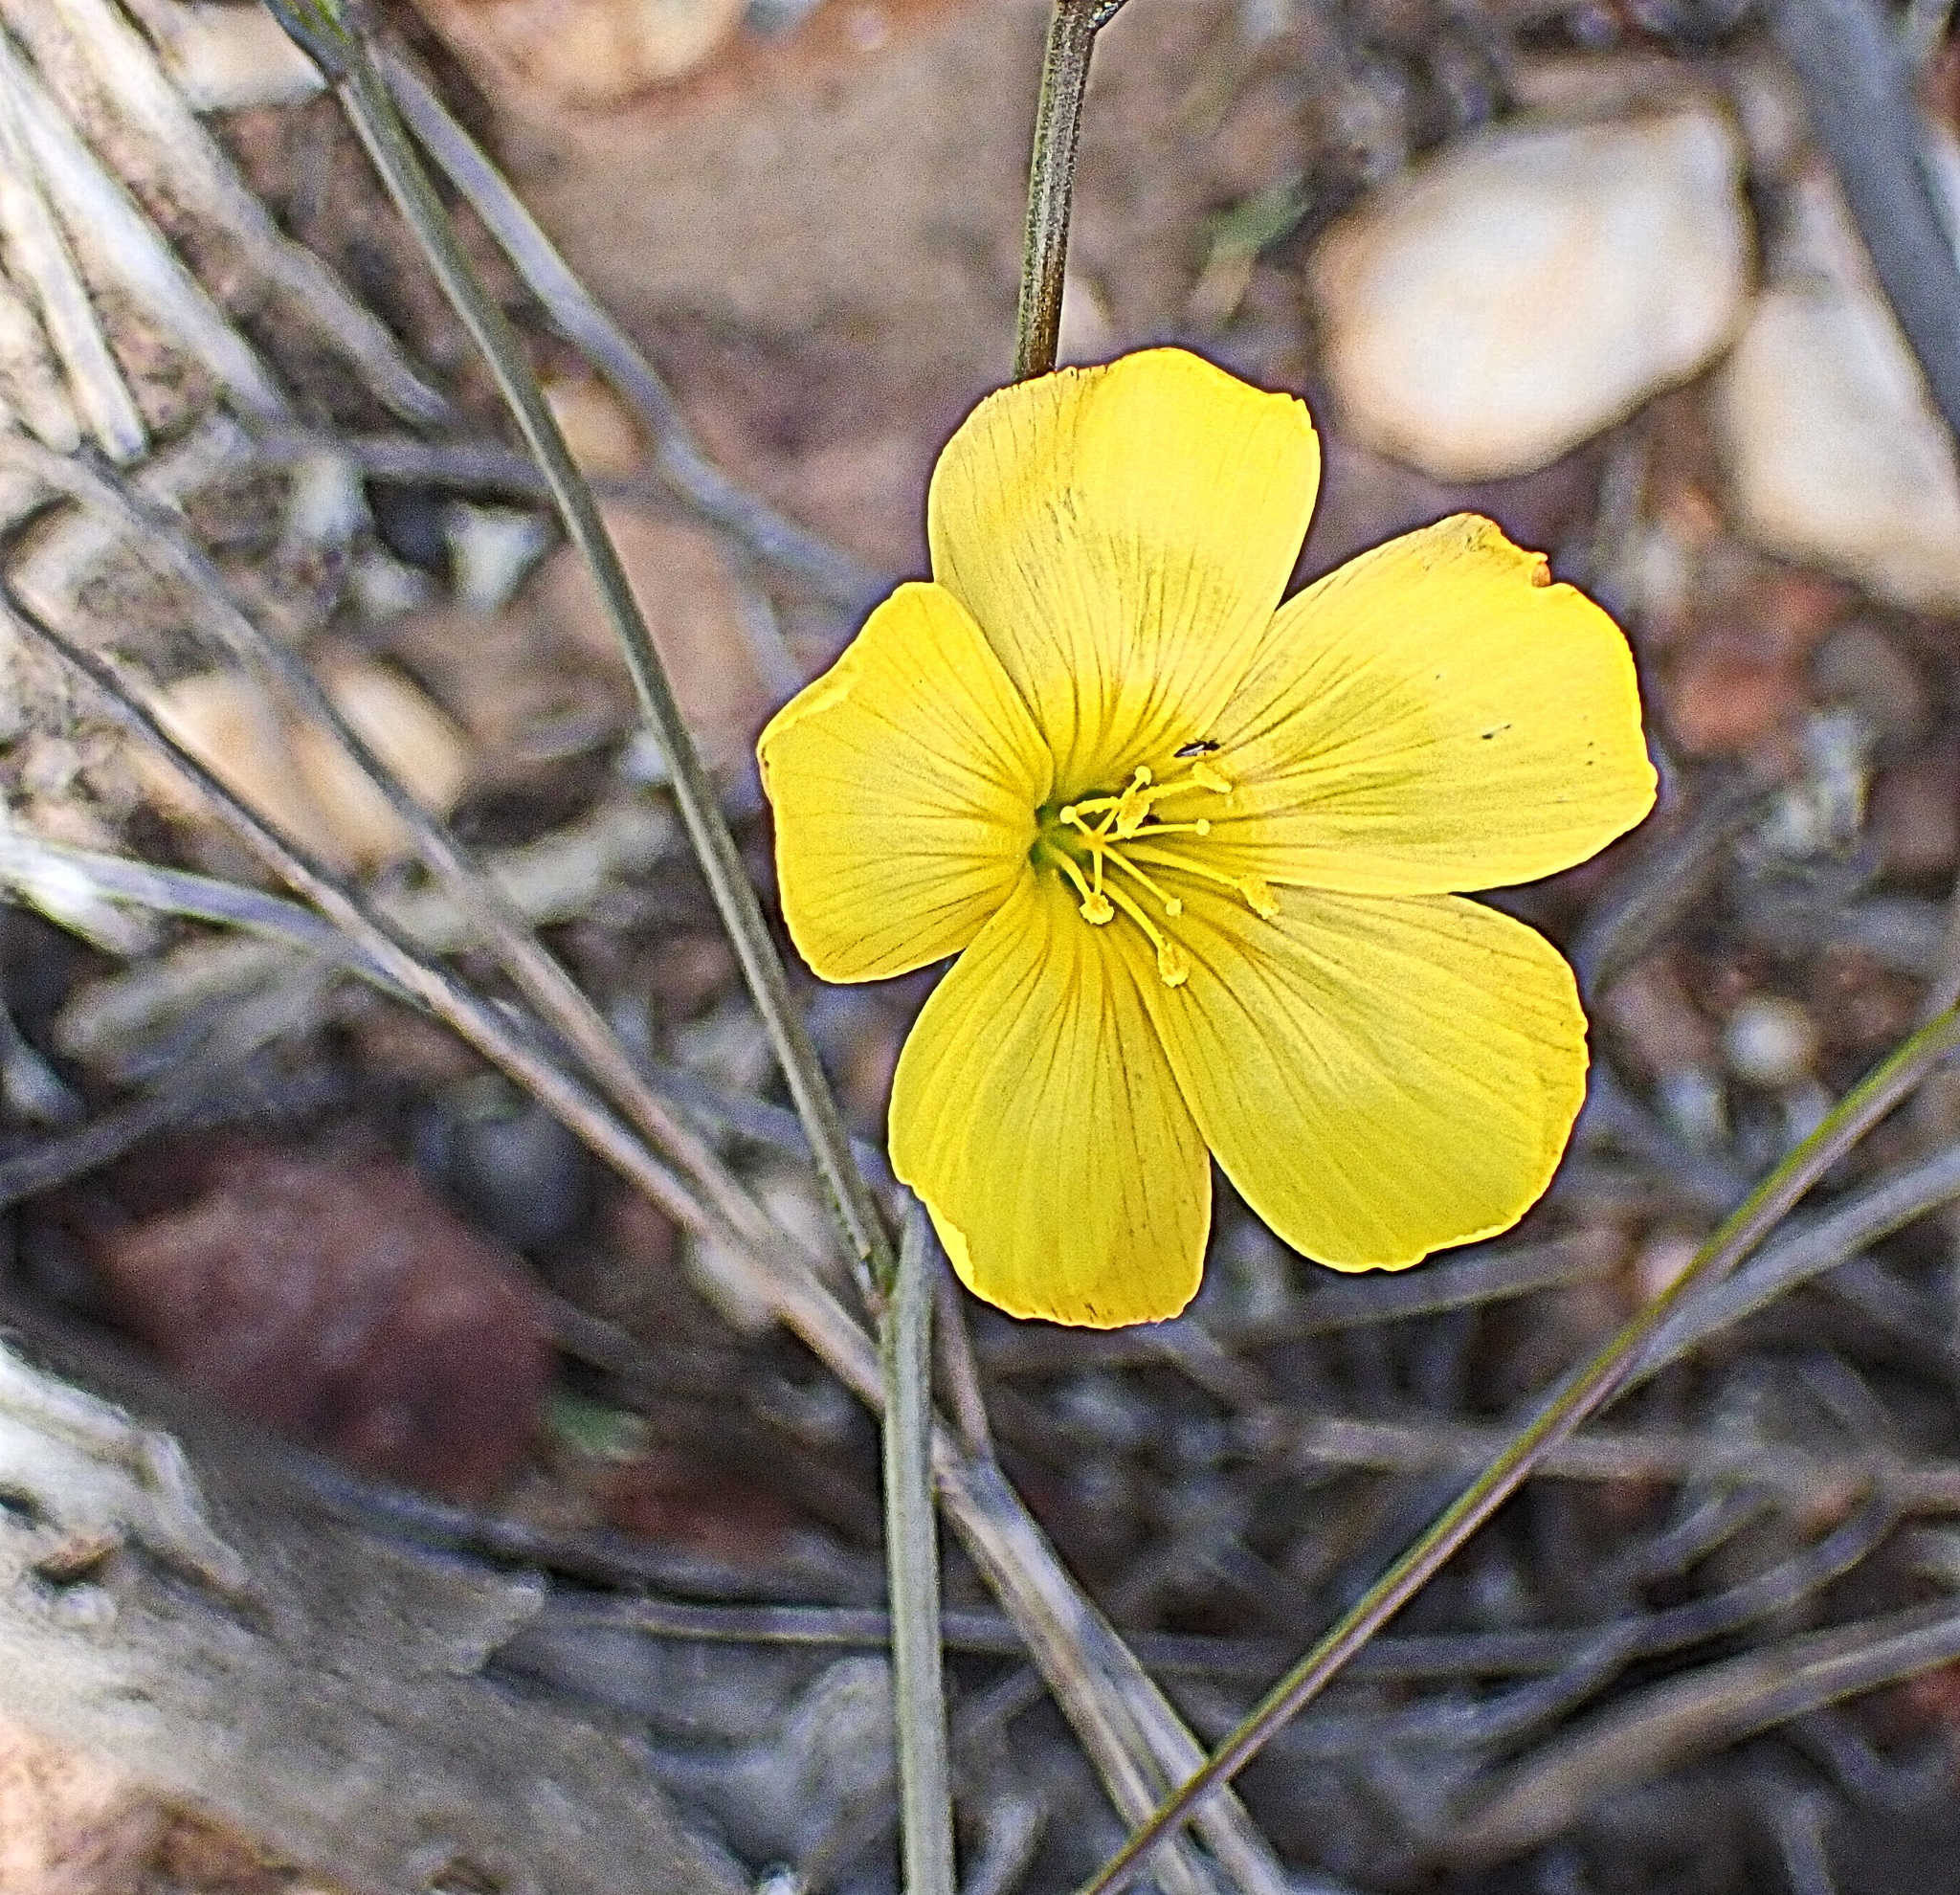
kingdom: Plantae
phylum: Tracheophyta
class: Magnoliopsida
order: Malpighiales
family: Linaceae
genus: Linum
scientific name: Linum africanum
